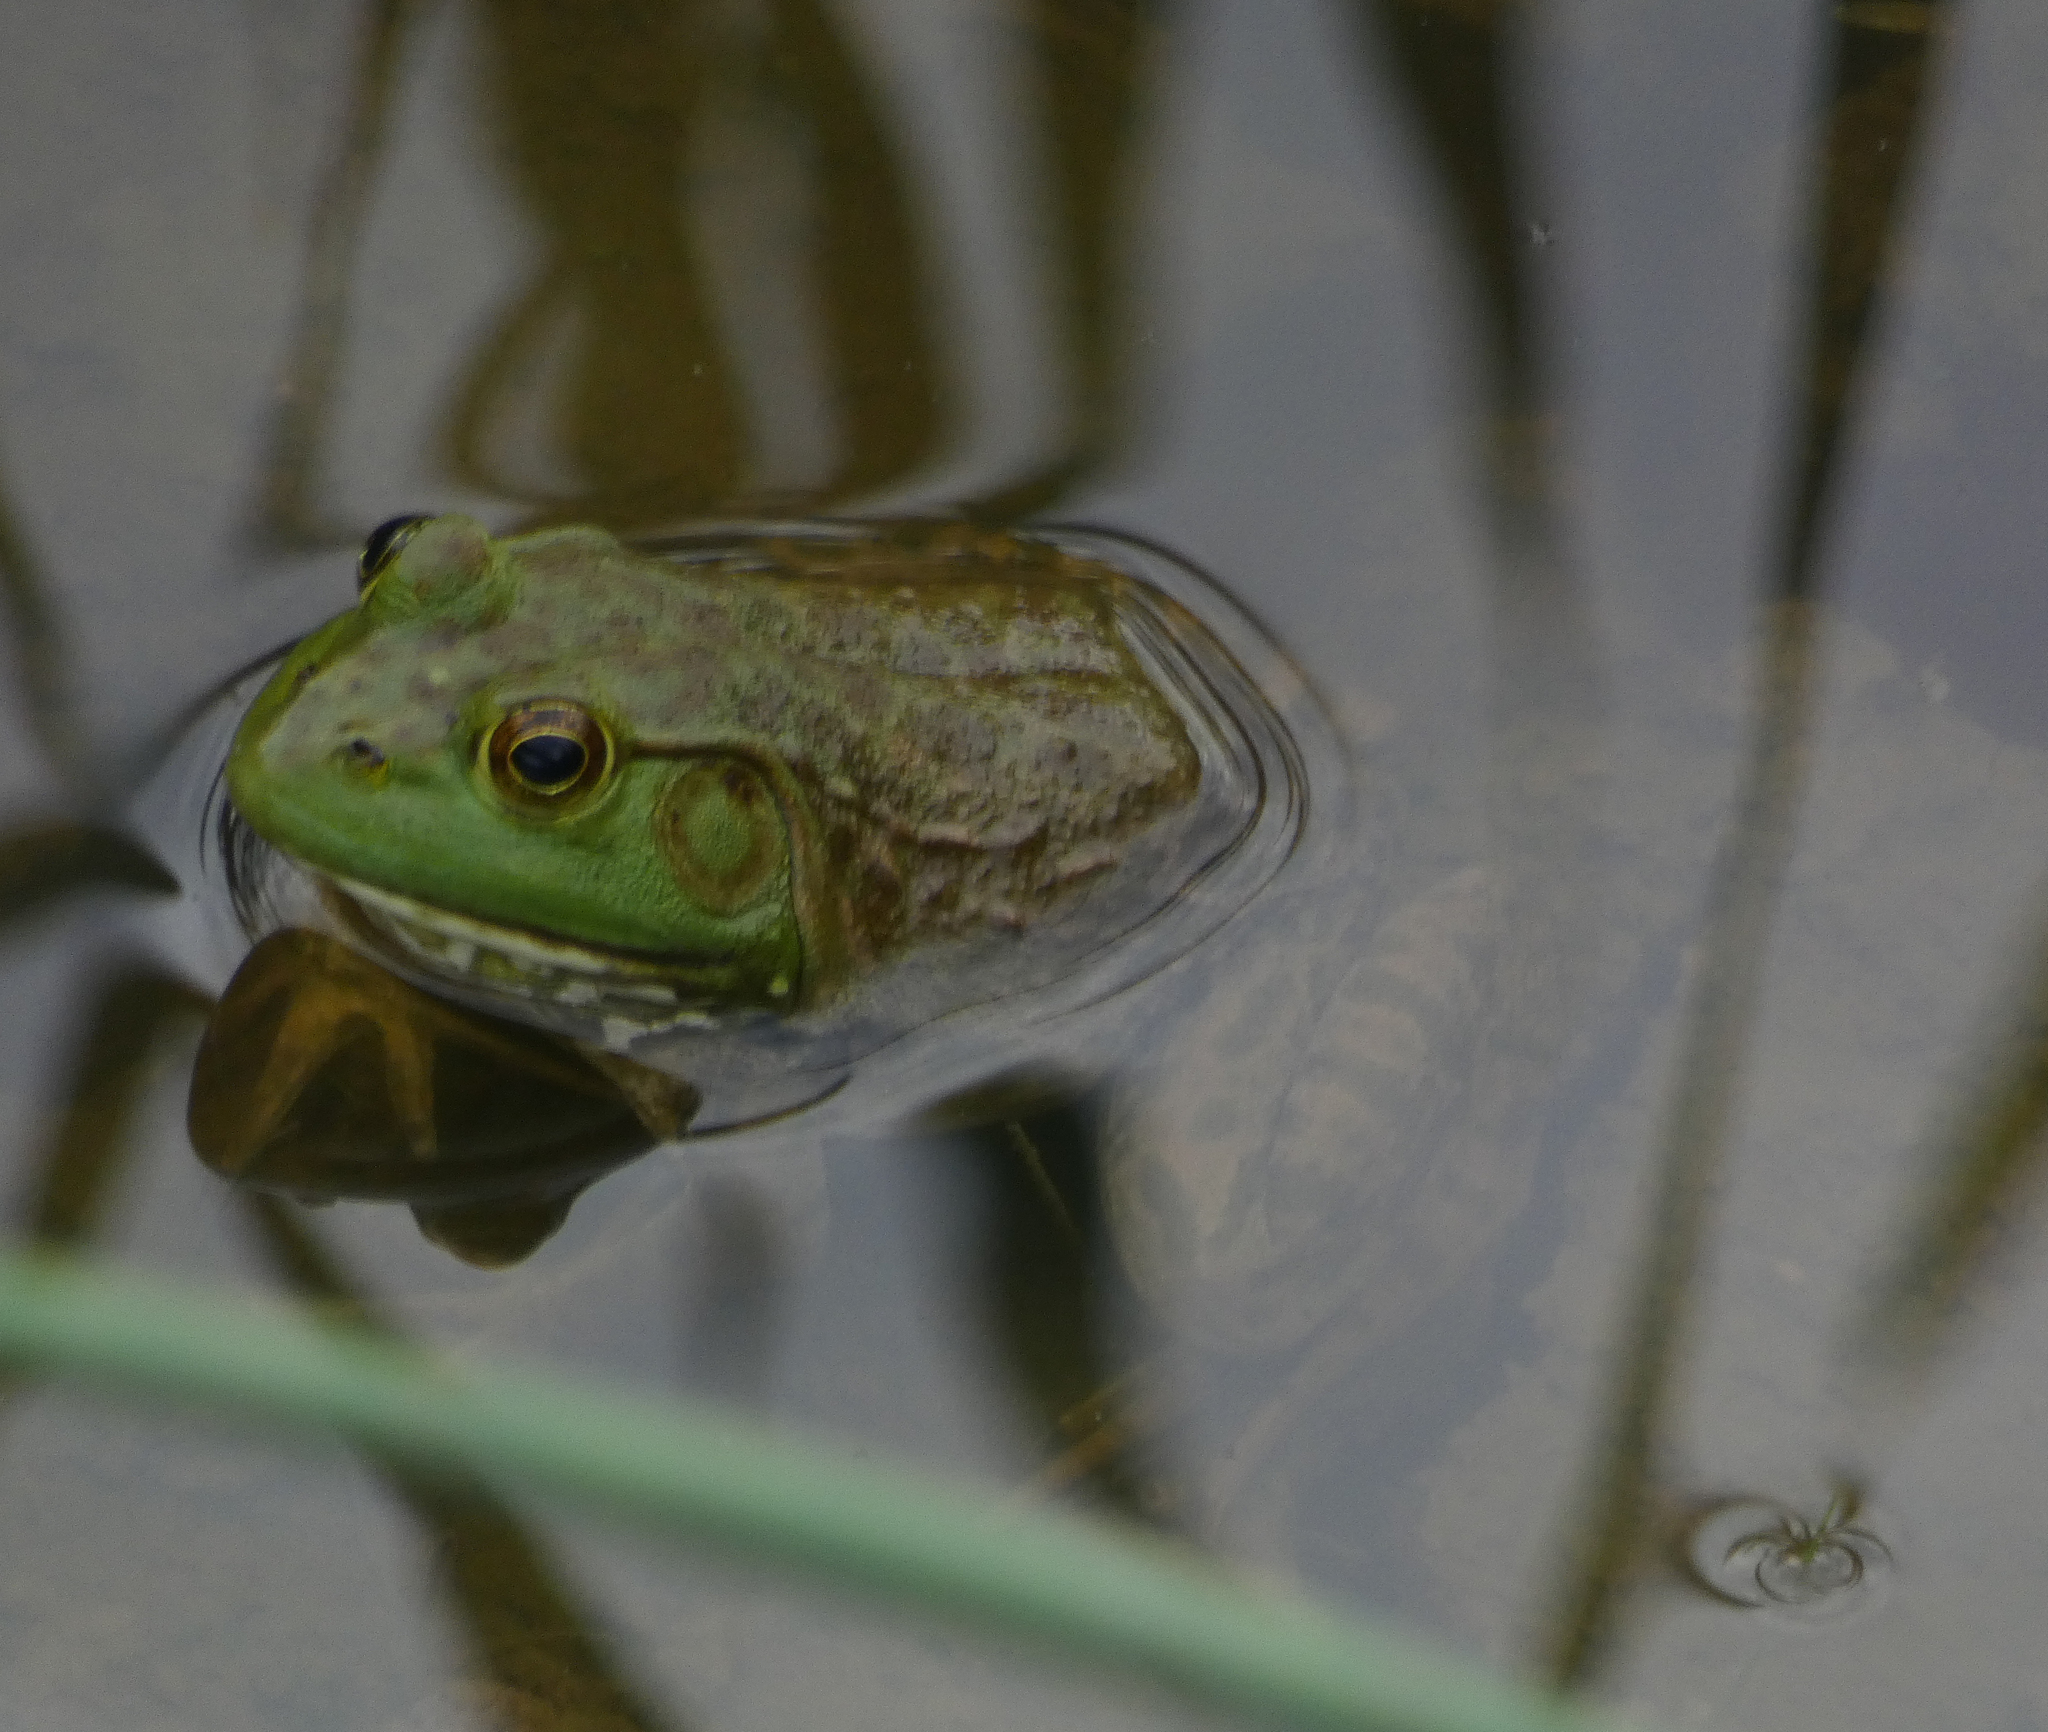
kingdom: Animalia
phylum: Chordata
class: Amphibia
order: Anura
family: Ranidae
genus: Lithobates
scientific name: Lithobates catesbeianus
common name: American bullfrog
